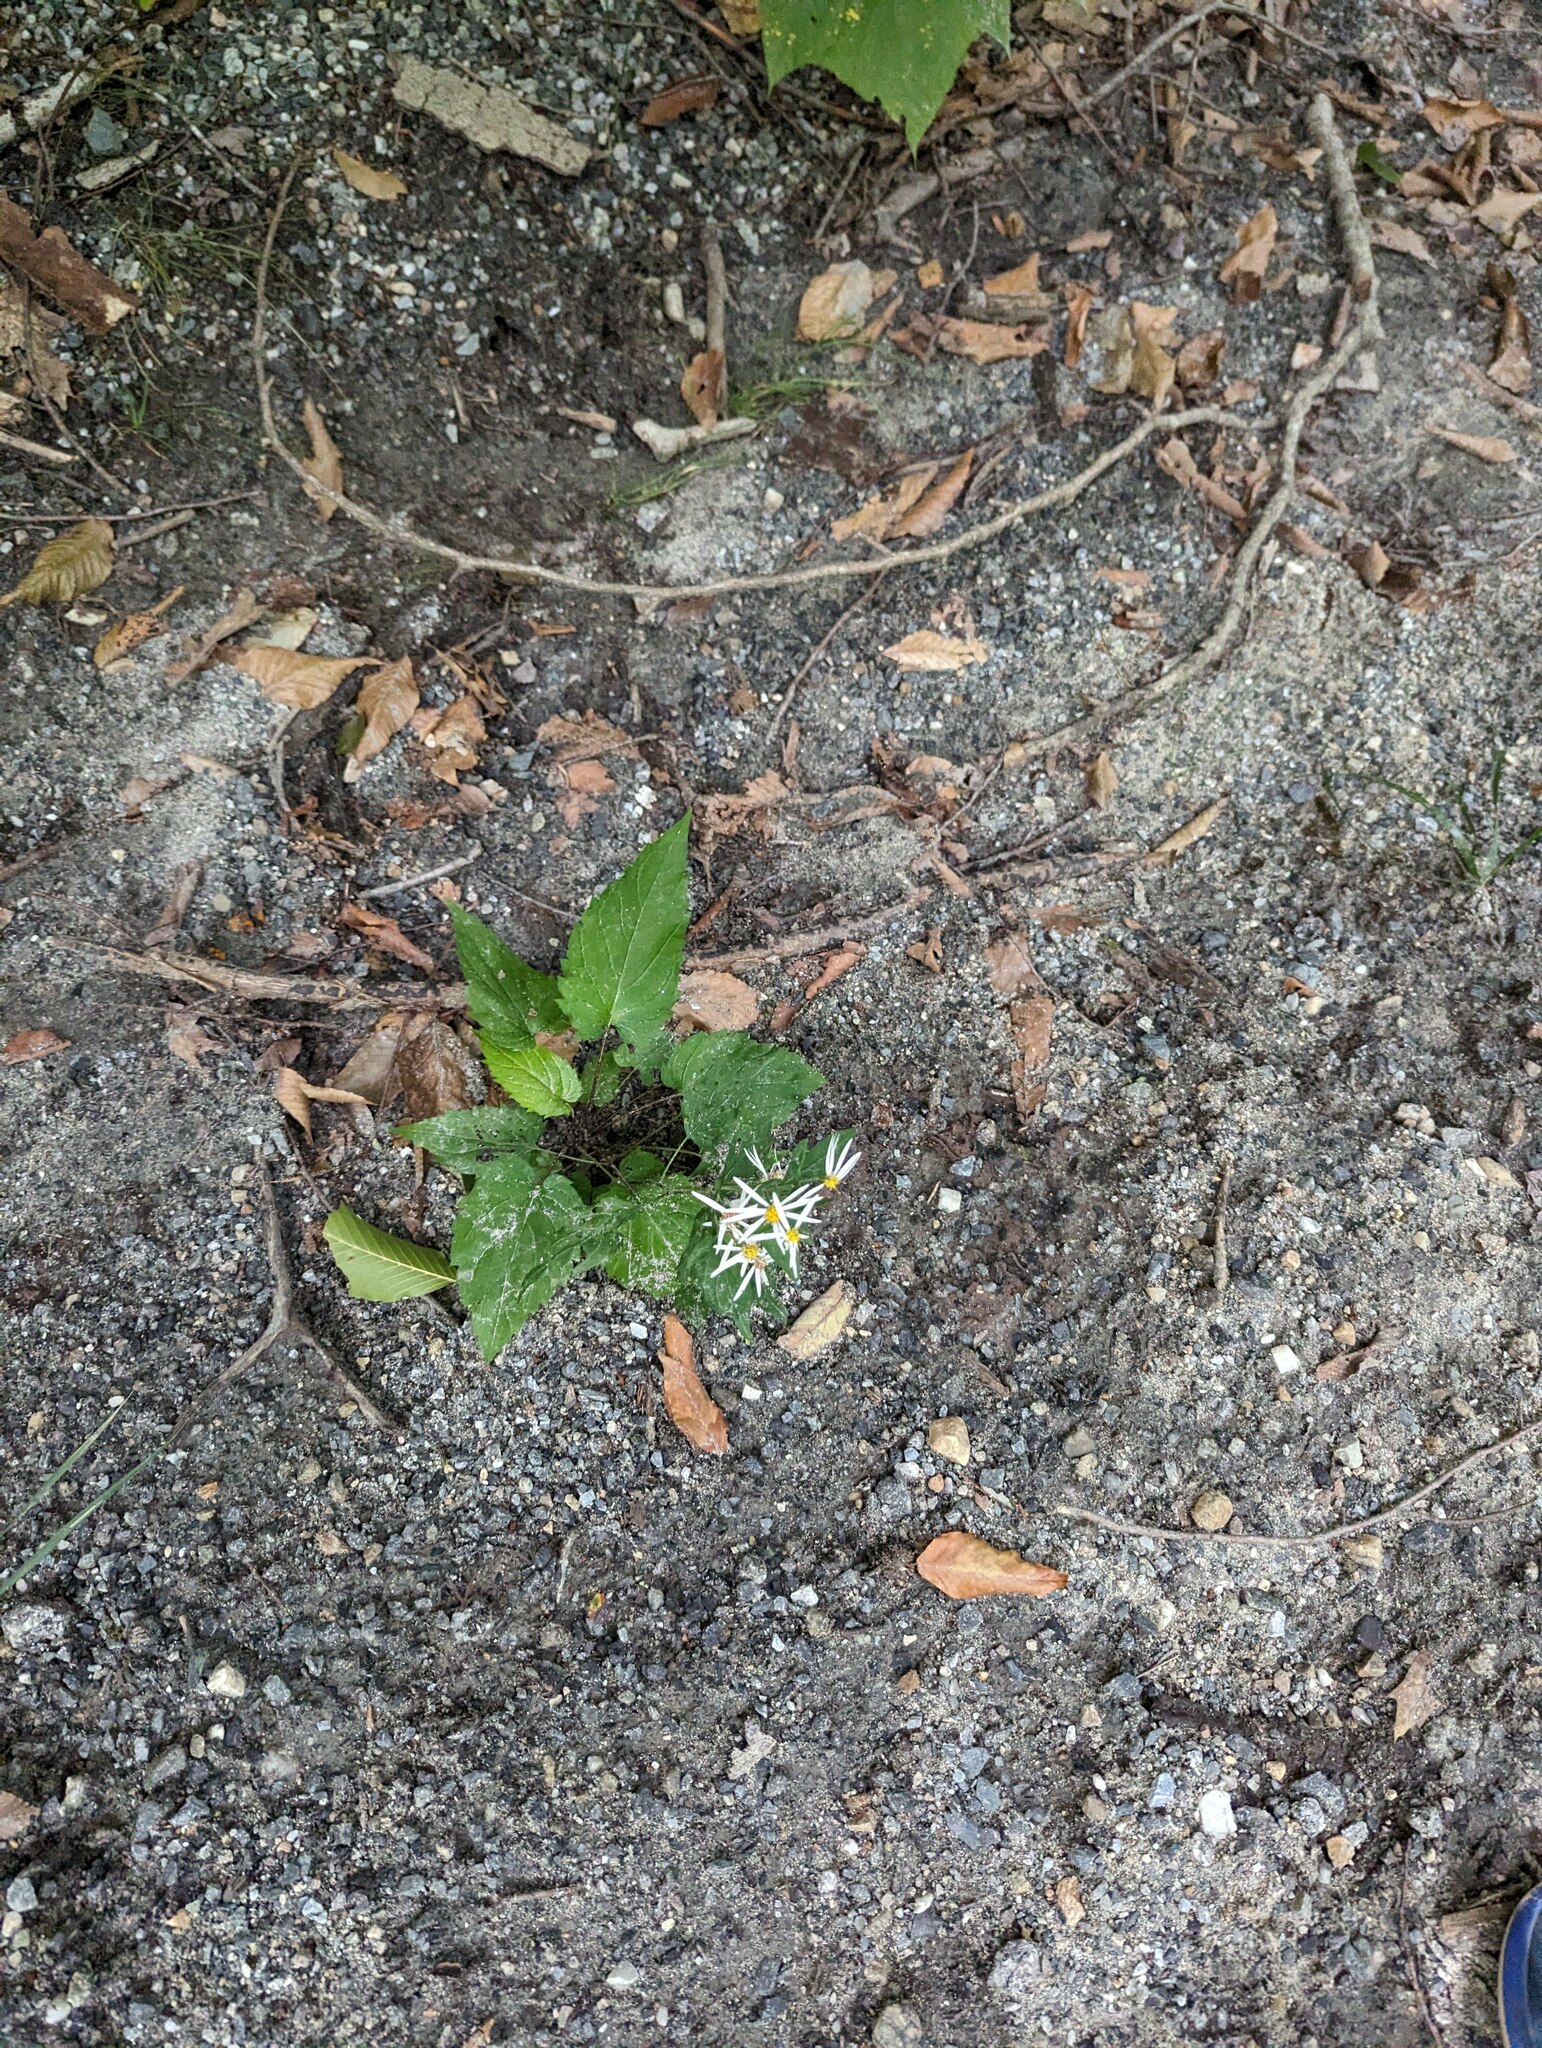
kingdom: Plantae
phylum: Tracheophyta
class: Magnoliopsida
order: Asterales
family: Asteraceae
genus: Eurybia
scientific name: Eurybia divaricata
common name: White wood aster
